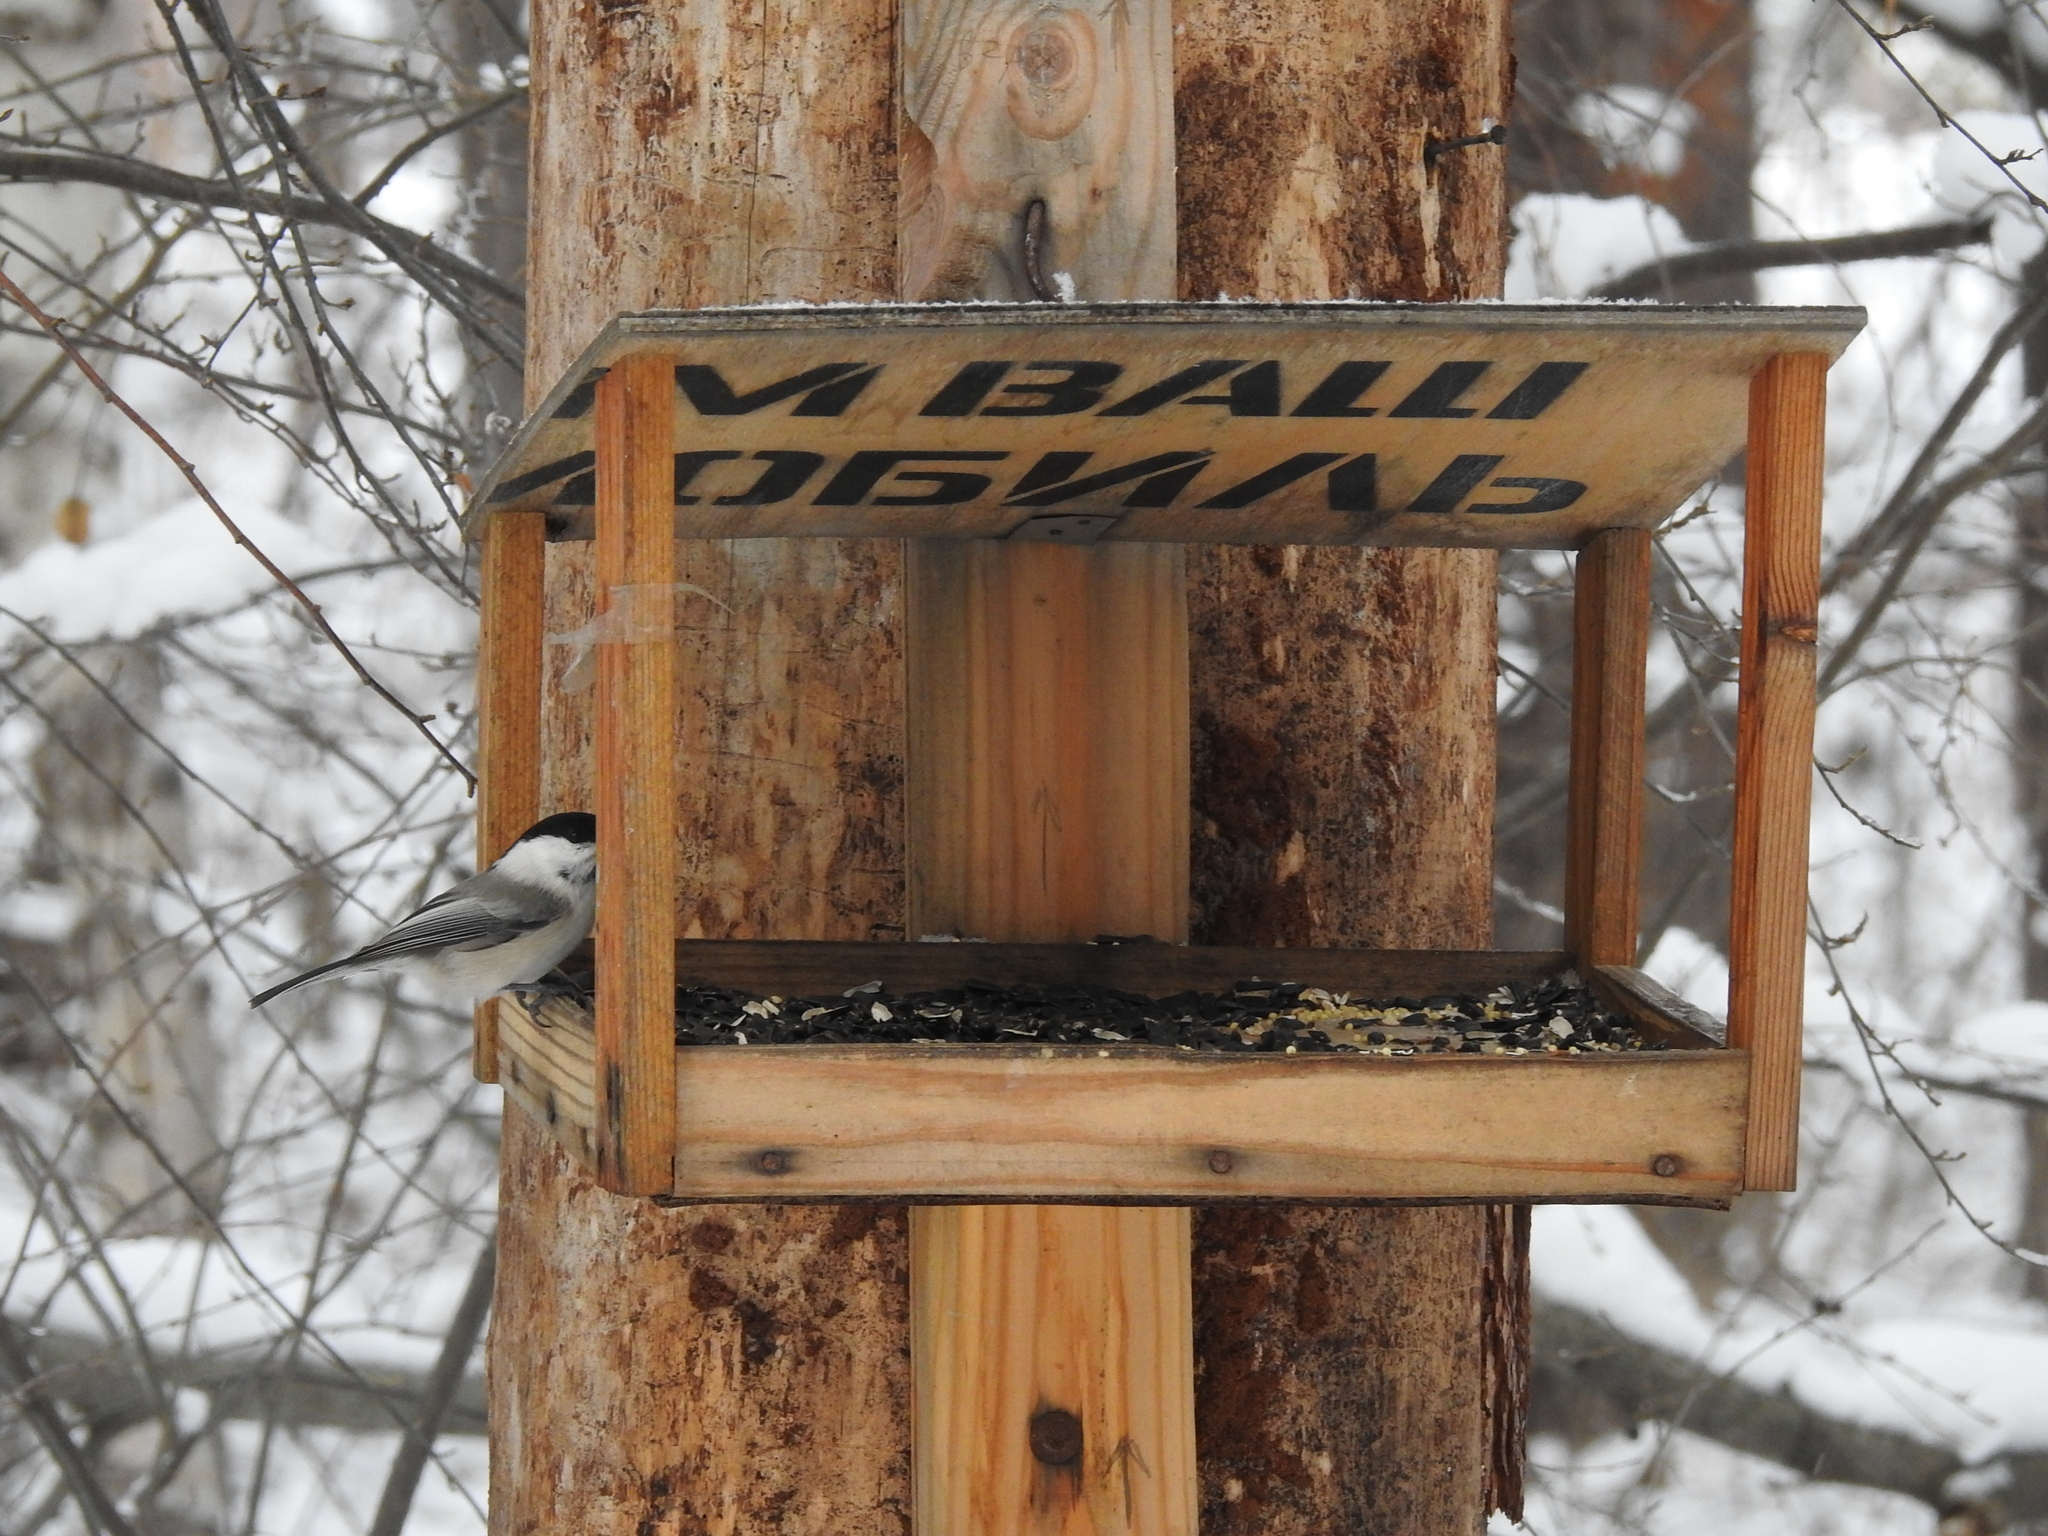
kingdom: Animalia
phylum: Chordata
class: Aves
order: Passeriformes
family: Paridae
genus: Poecile
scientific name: Poecile montanus
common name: Willow tit
